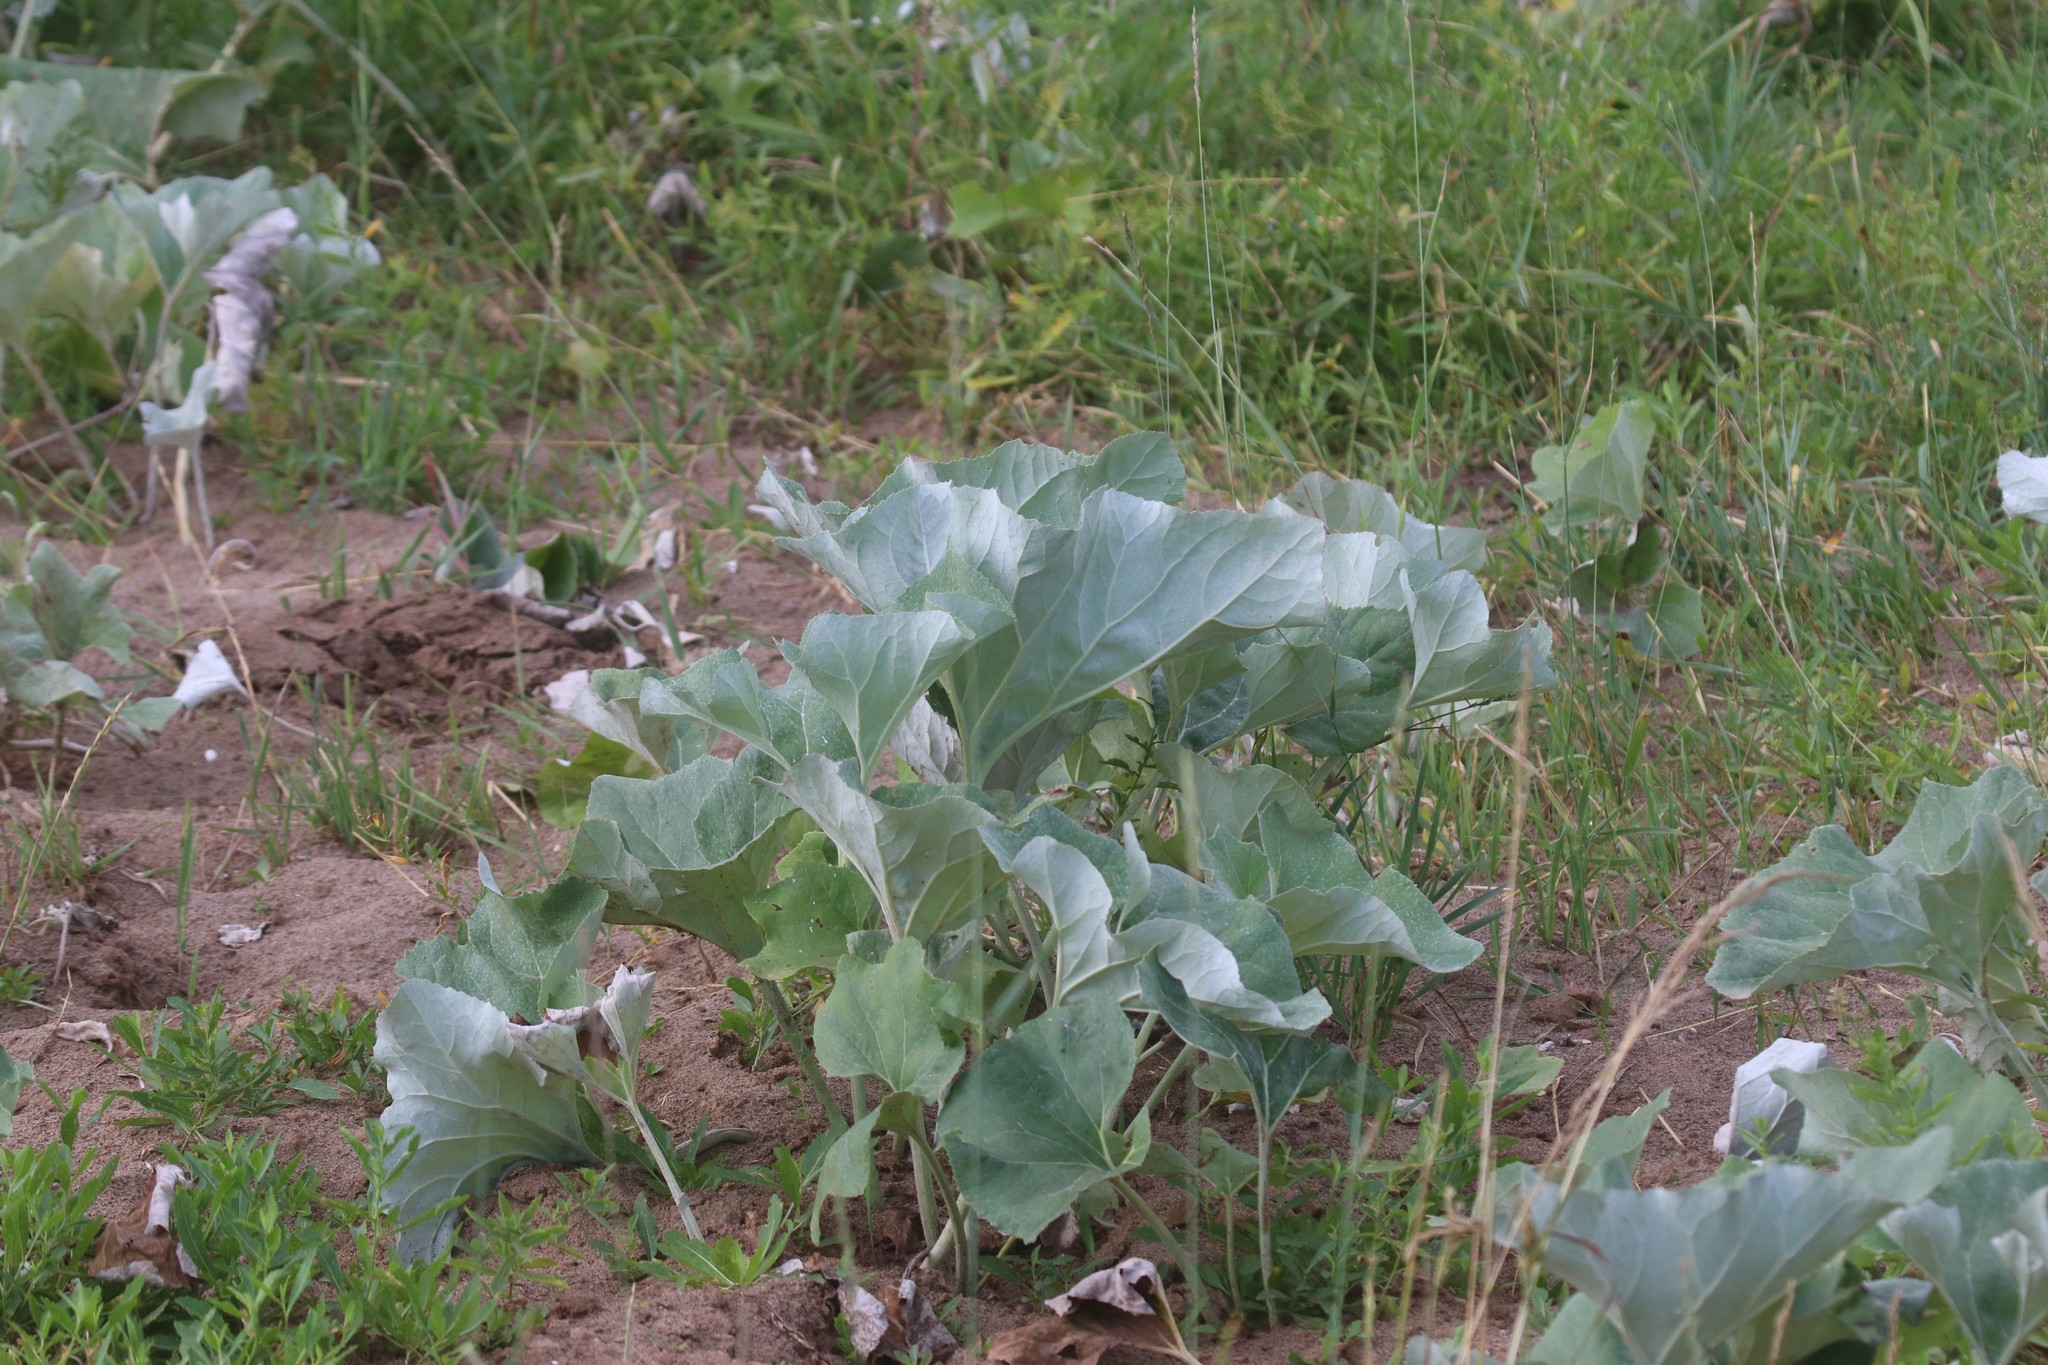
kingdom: Plantae
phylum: Tracheophyta
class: Magnoliopsida
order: Asterales
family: Asteraceae
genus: Petasites
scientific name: Petasites spurius
